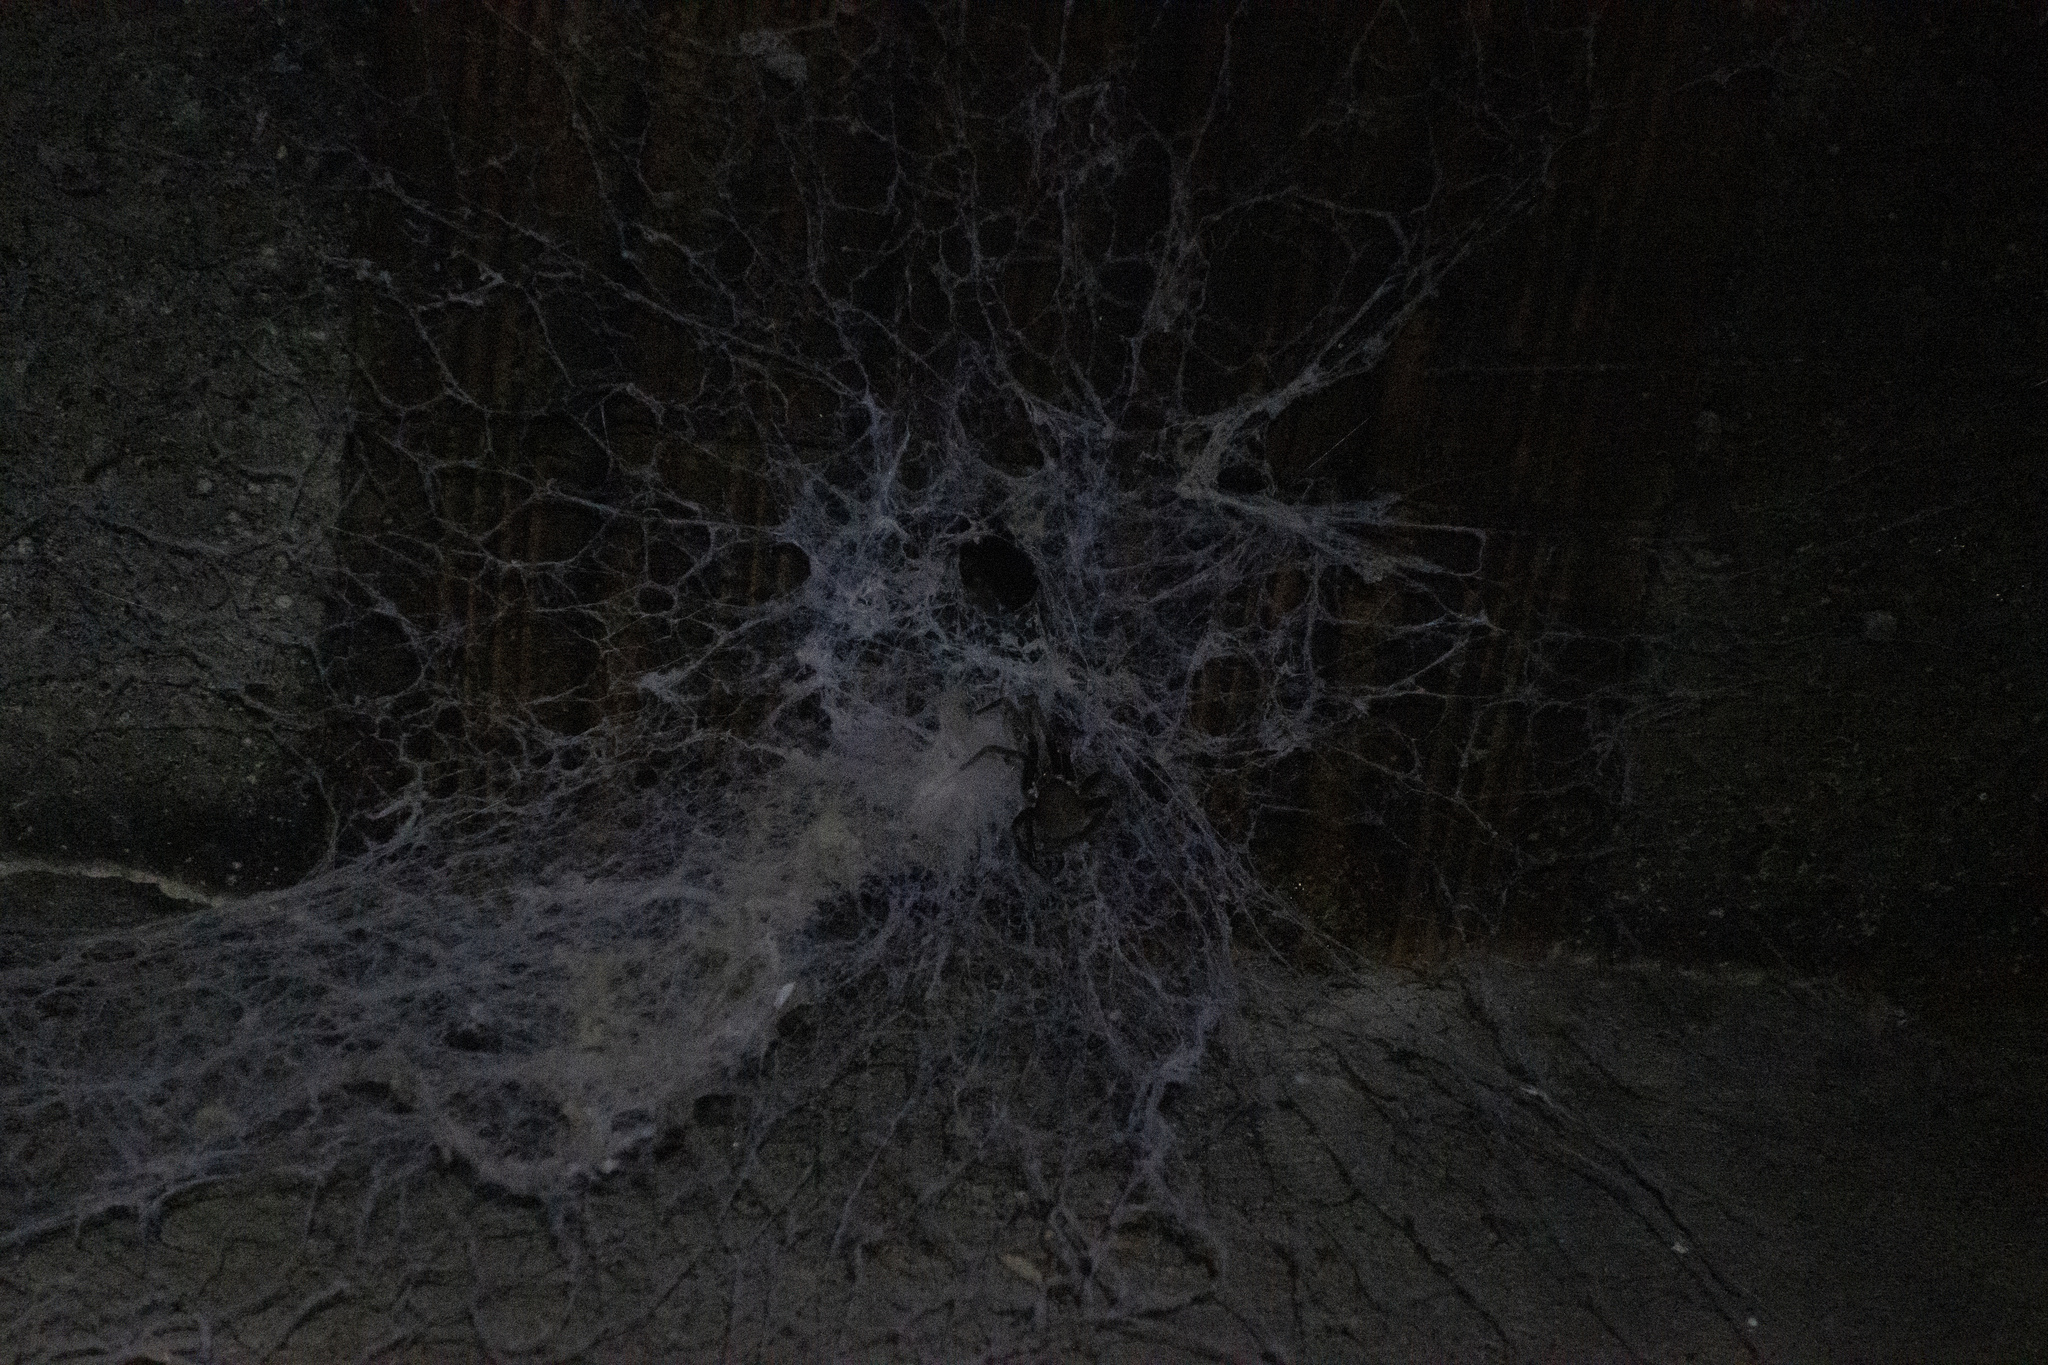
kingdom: Animalia
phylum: Arthropoda
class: Arachnida
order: Araneae
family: Filistatidae
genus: Kukulcania
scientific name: Kukulcania hibernalis
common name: Crevice weaver
